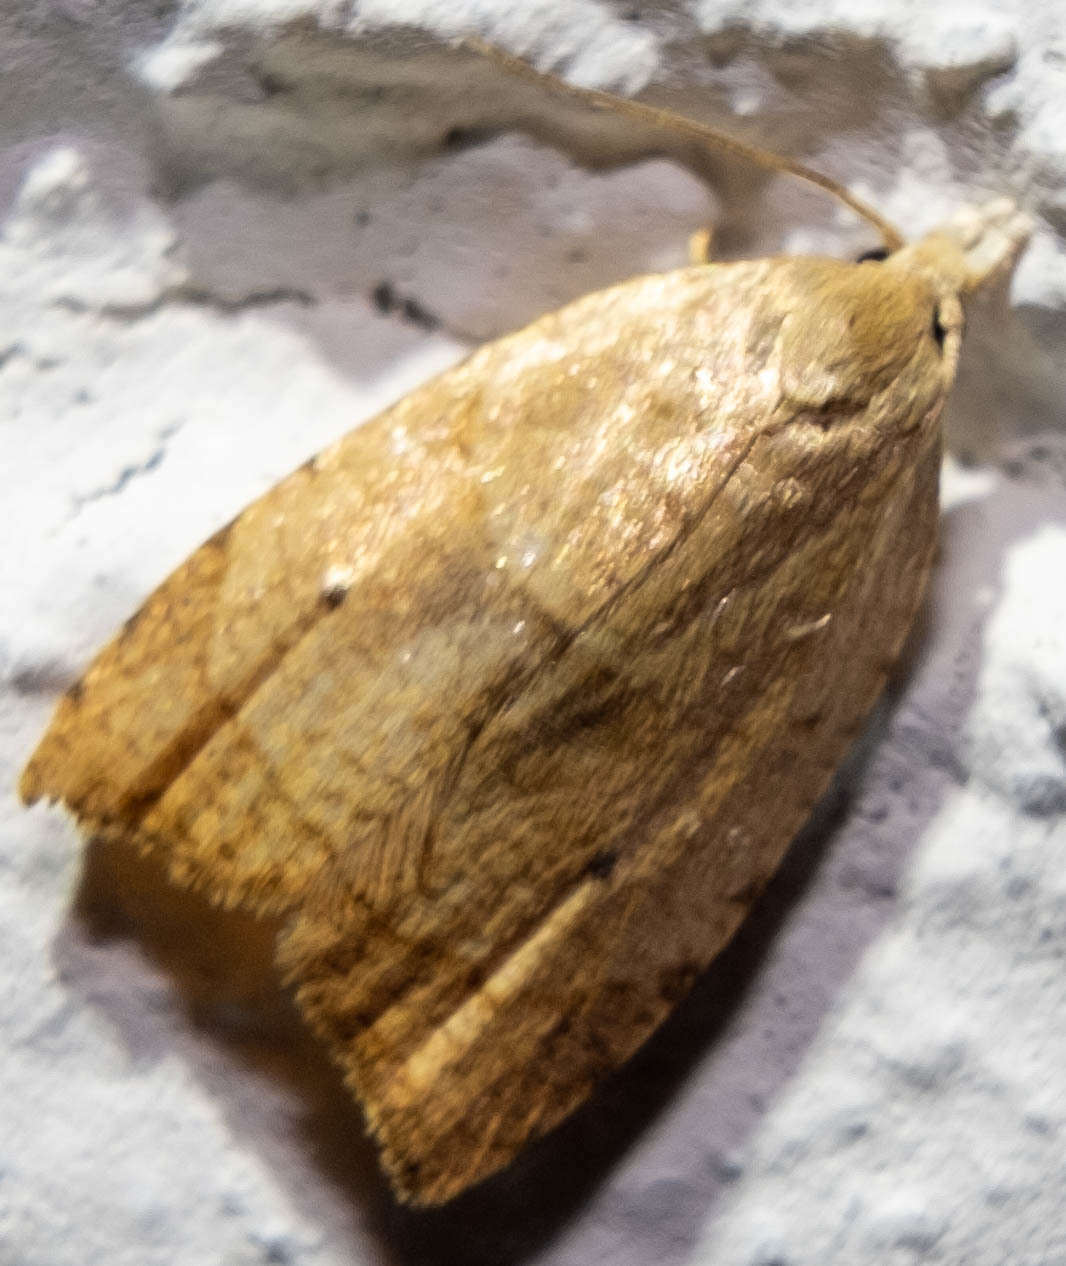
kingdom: Animalia
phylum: Arthropoda
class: Insecta
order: Lepidoptera
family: Tortricidae
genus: Coelostathma
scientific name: Coelostathma discopunctana
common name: Batman moth
